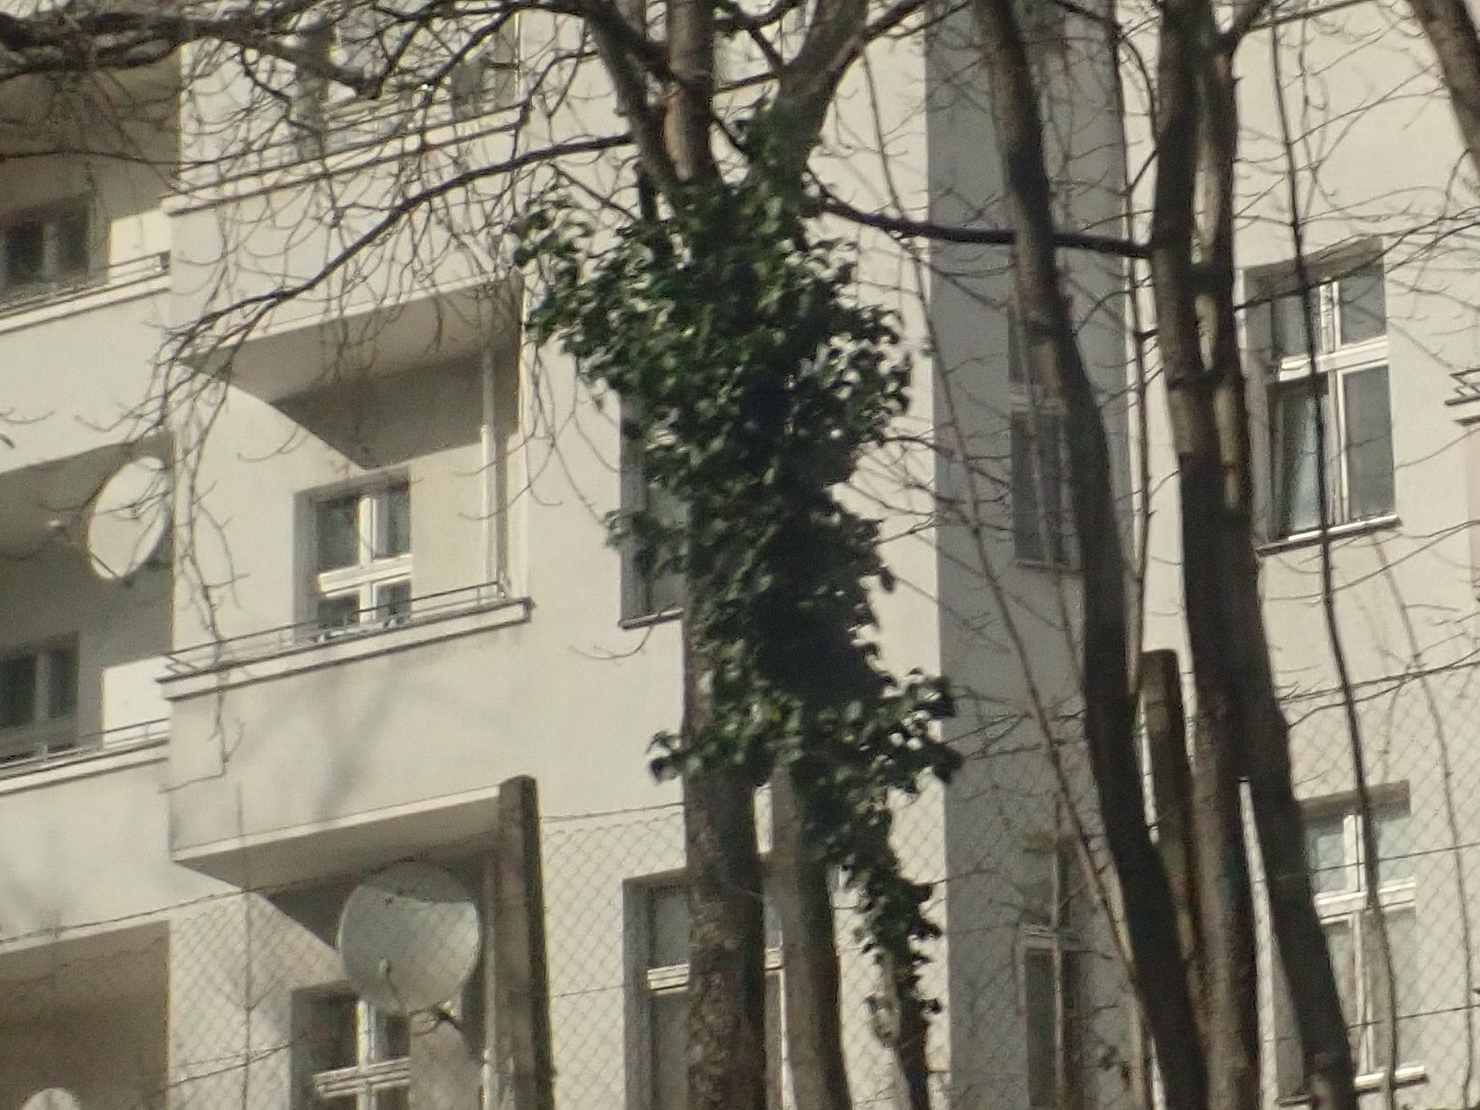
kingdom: Plantae
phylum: Tracheophyta
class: Magnoliopsida
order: Apiales
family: Araliaceae
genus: Hedera
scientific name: Hedera helix
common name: Ivy
